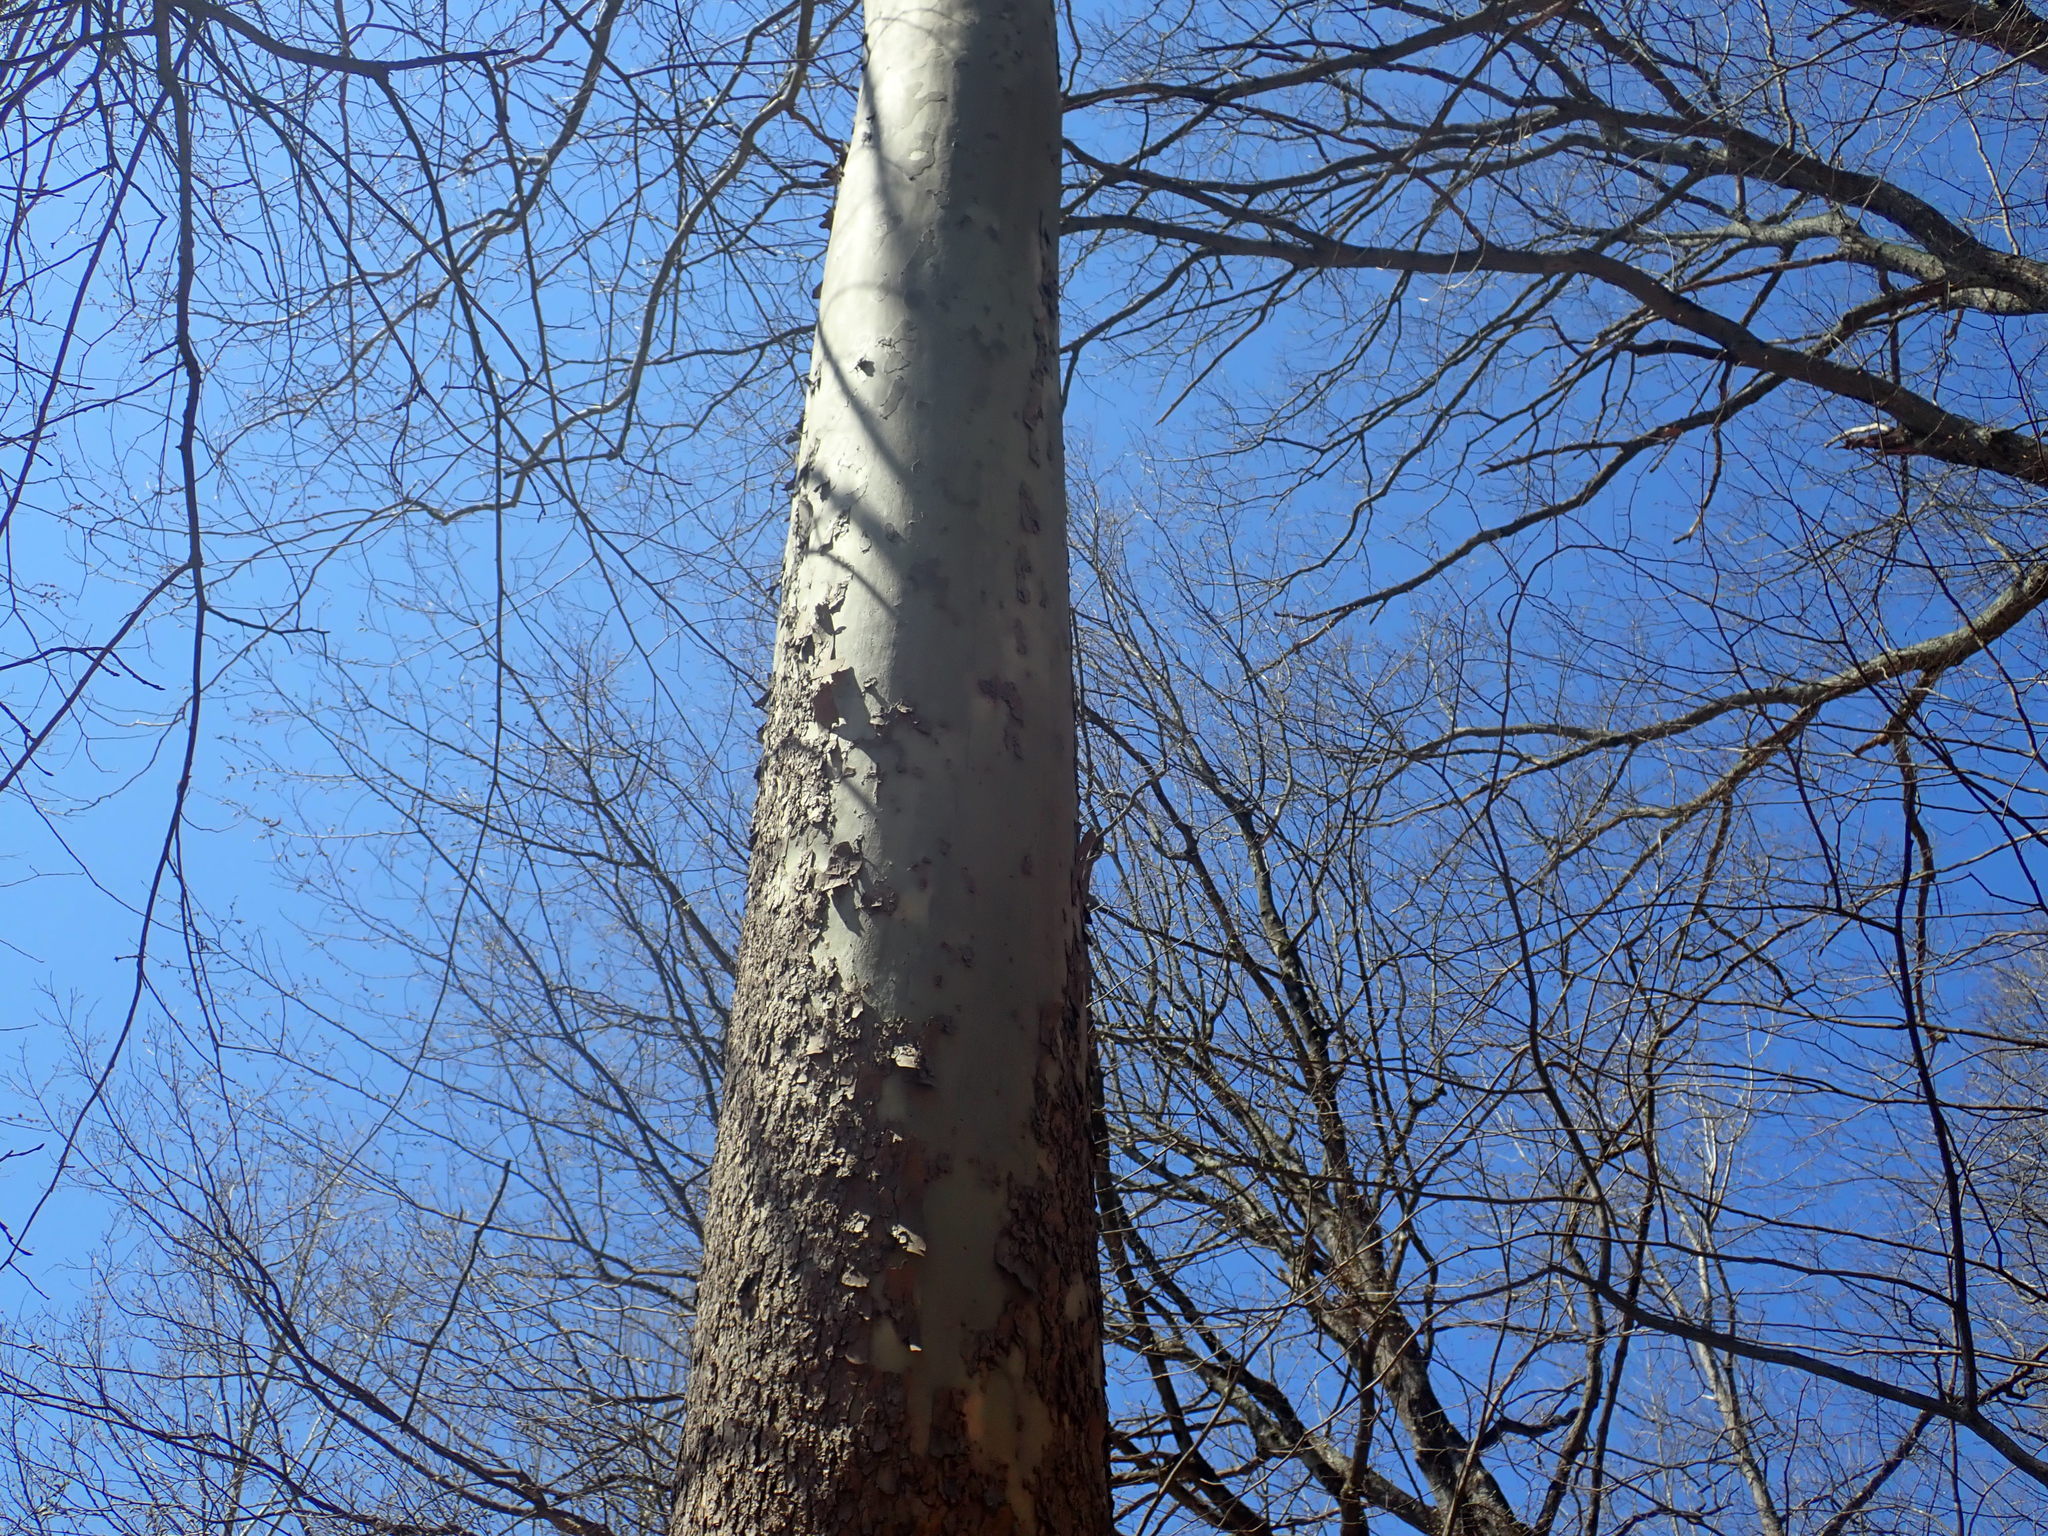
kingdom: Plantae
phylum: Tracheophyta
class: Magnoliopsida
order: Proteales
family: Platanaceae
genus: Platanus
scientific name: Platanus occidentalis
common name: American sycamore
